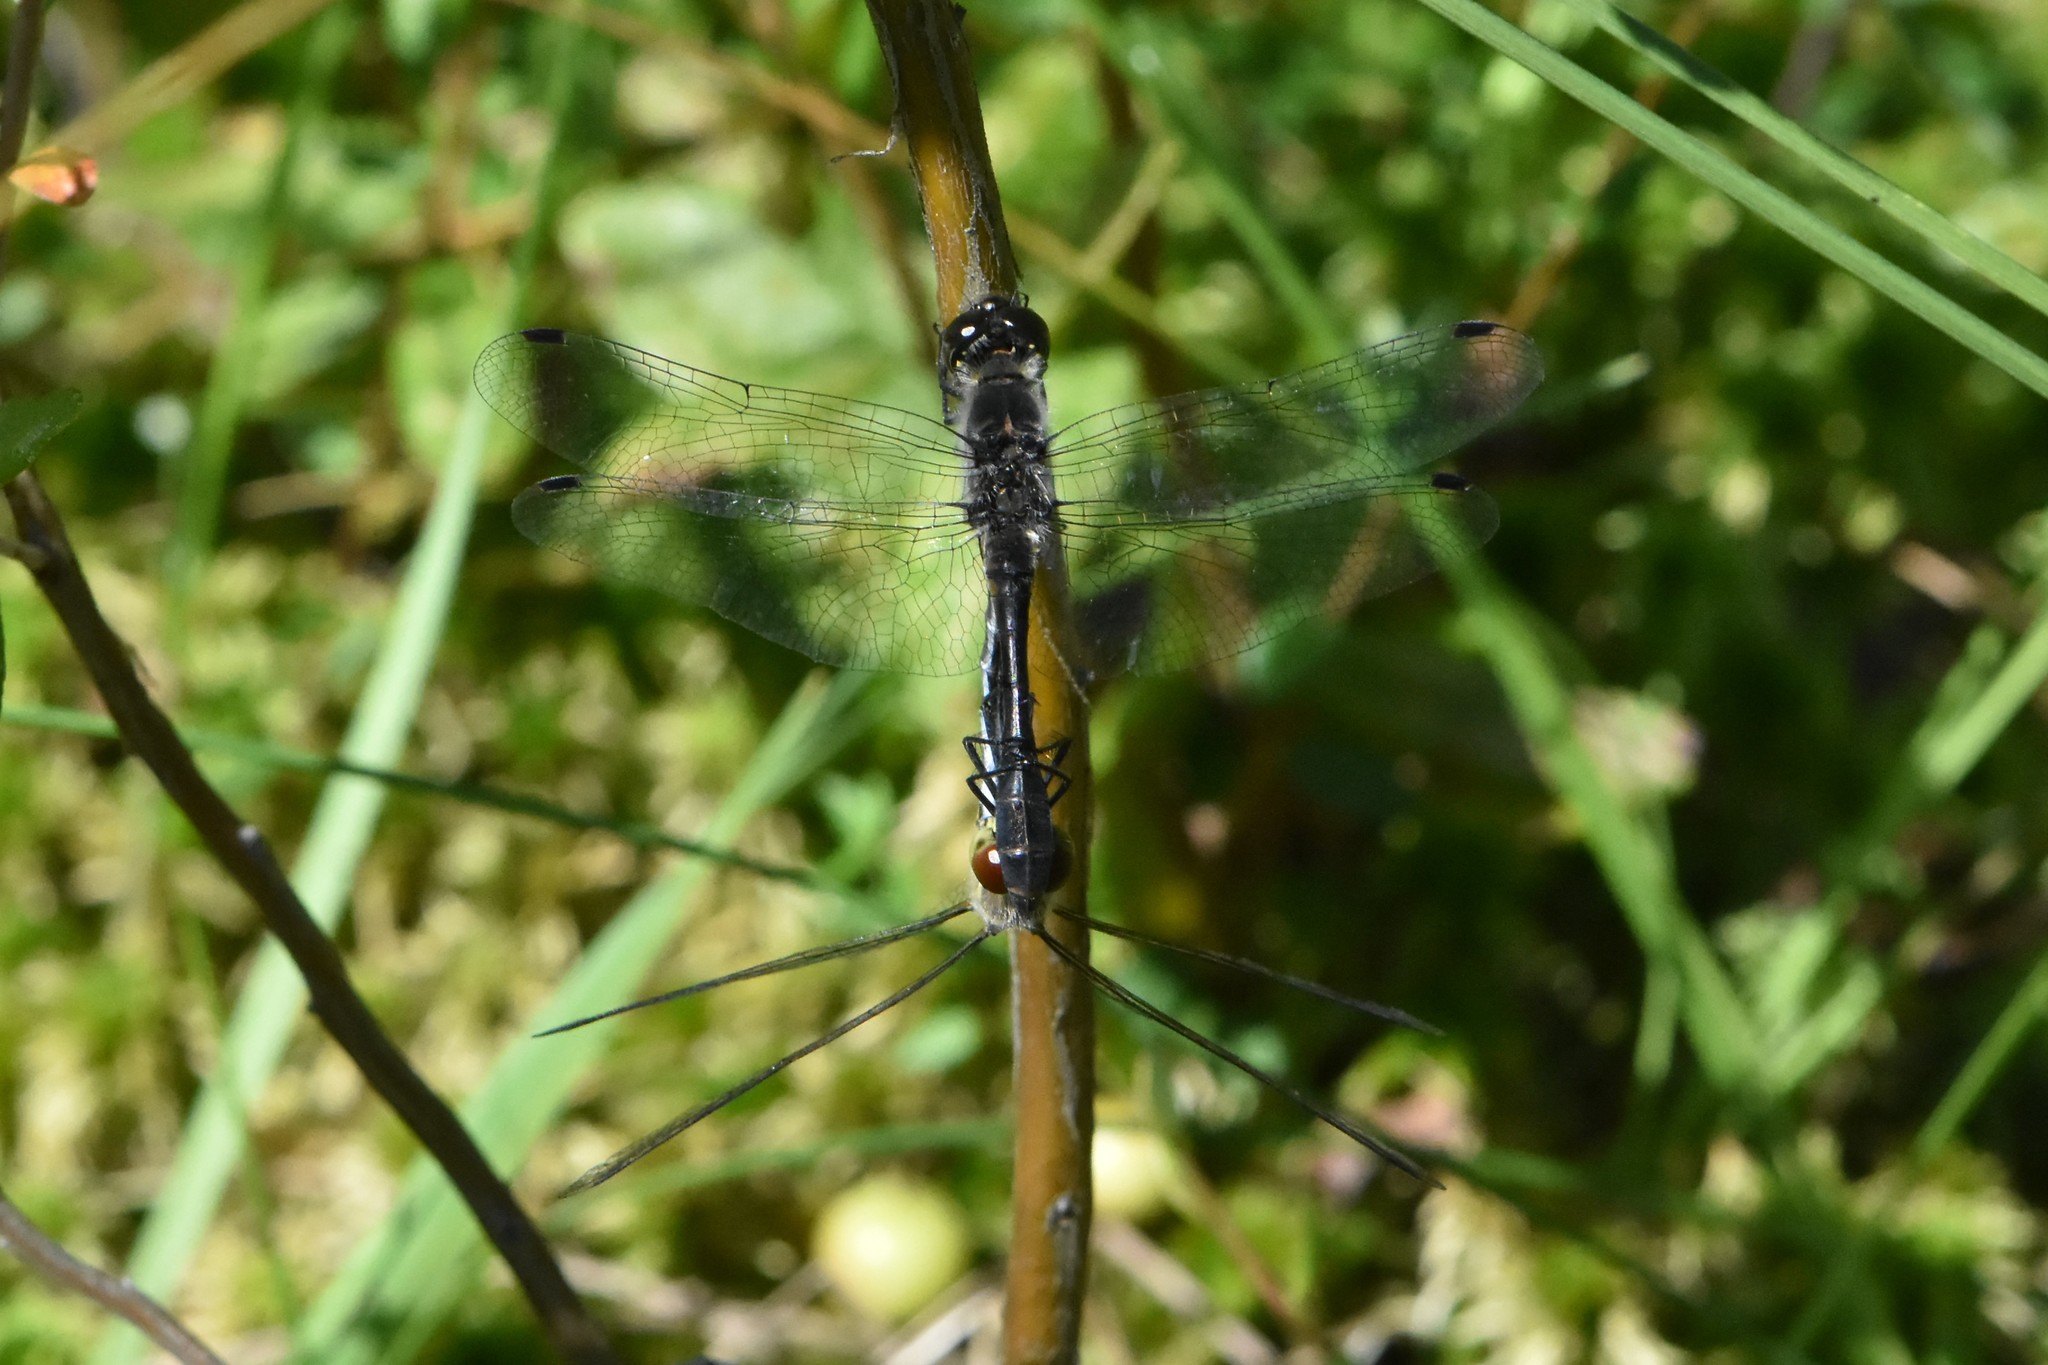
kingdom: Animalia
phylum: Arthropoda
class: Insecta
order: Odonata
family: Libellulidae
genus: Sympetrum
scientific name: Sympetrum danae
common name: Black darter
